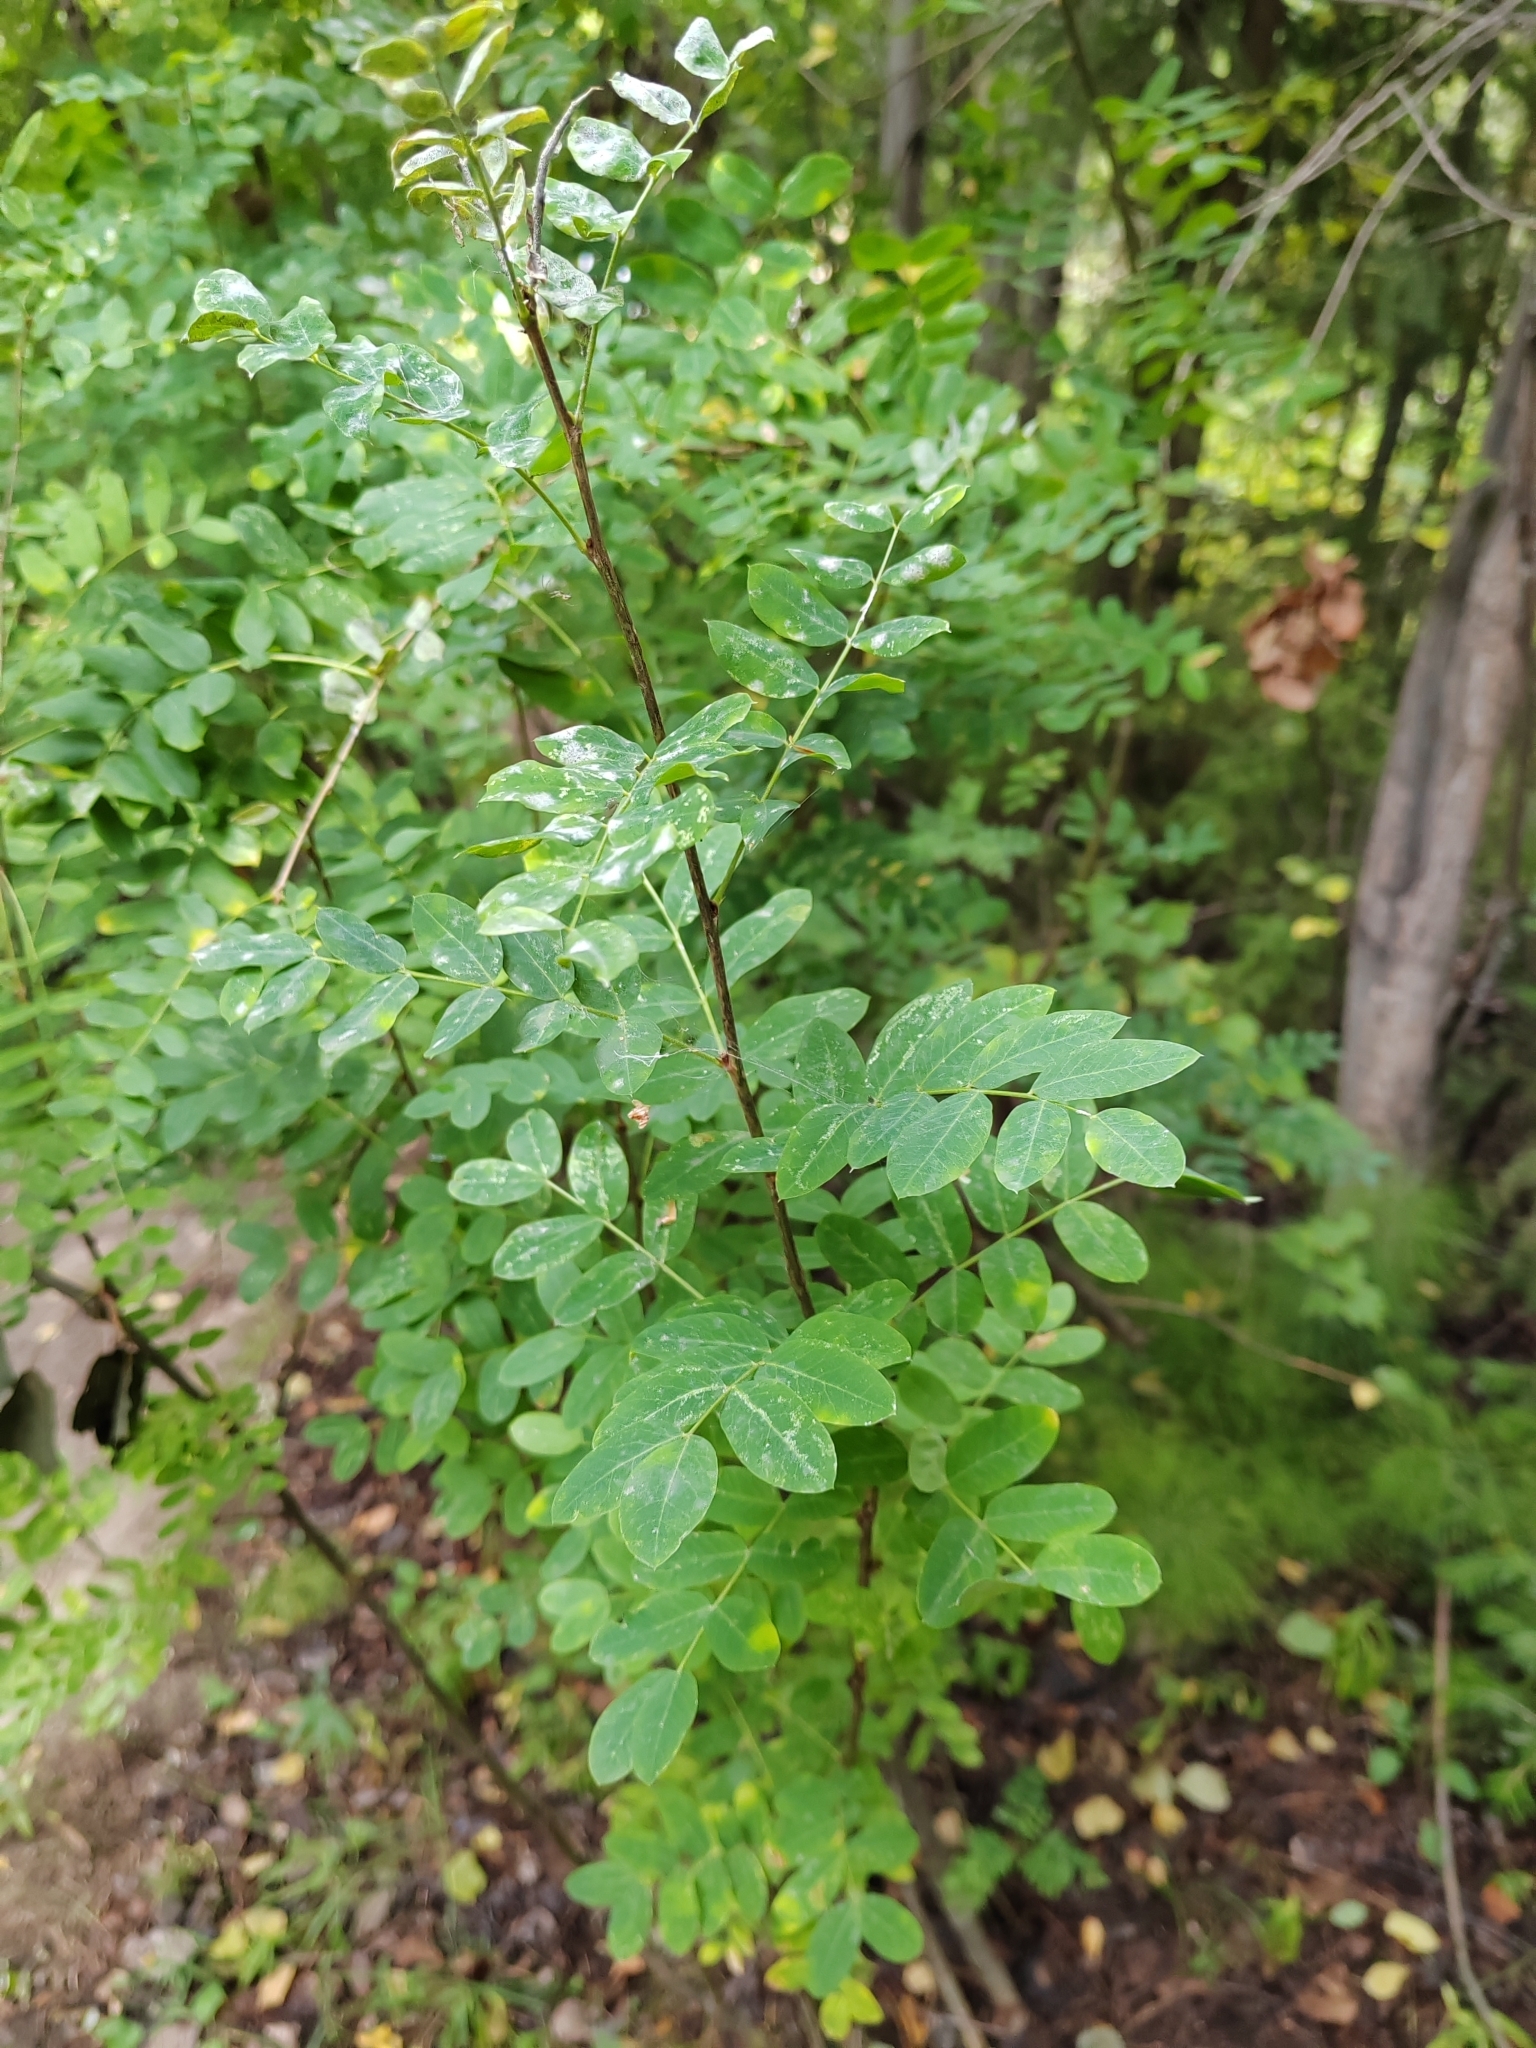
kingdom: Plantae
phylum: Tracheophyta
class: Magnoliopsida
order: Fabales
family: Fabaceae
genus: Caragana
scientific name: Caragana arborescens
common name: Siberian peashrub
